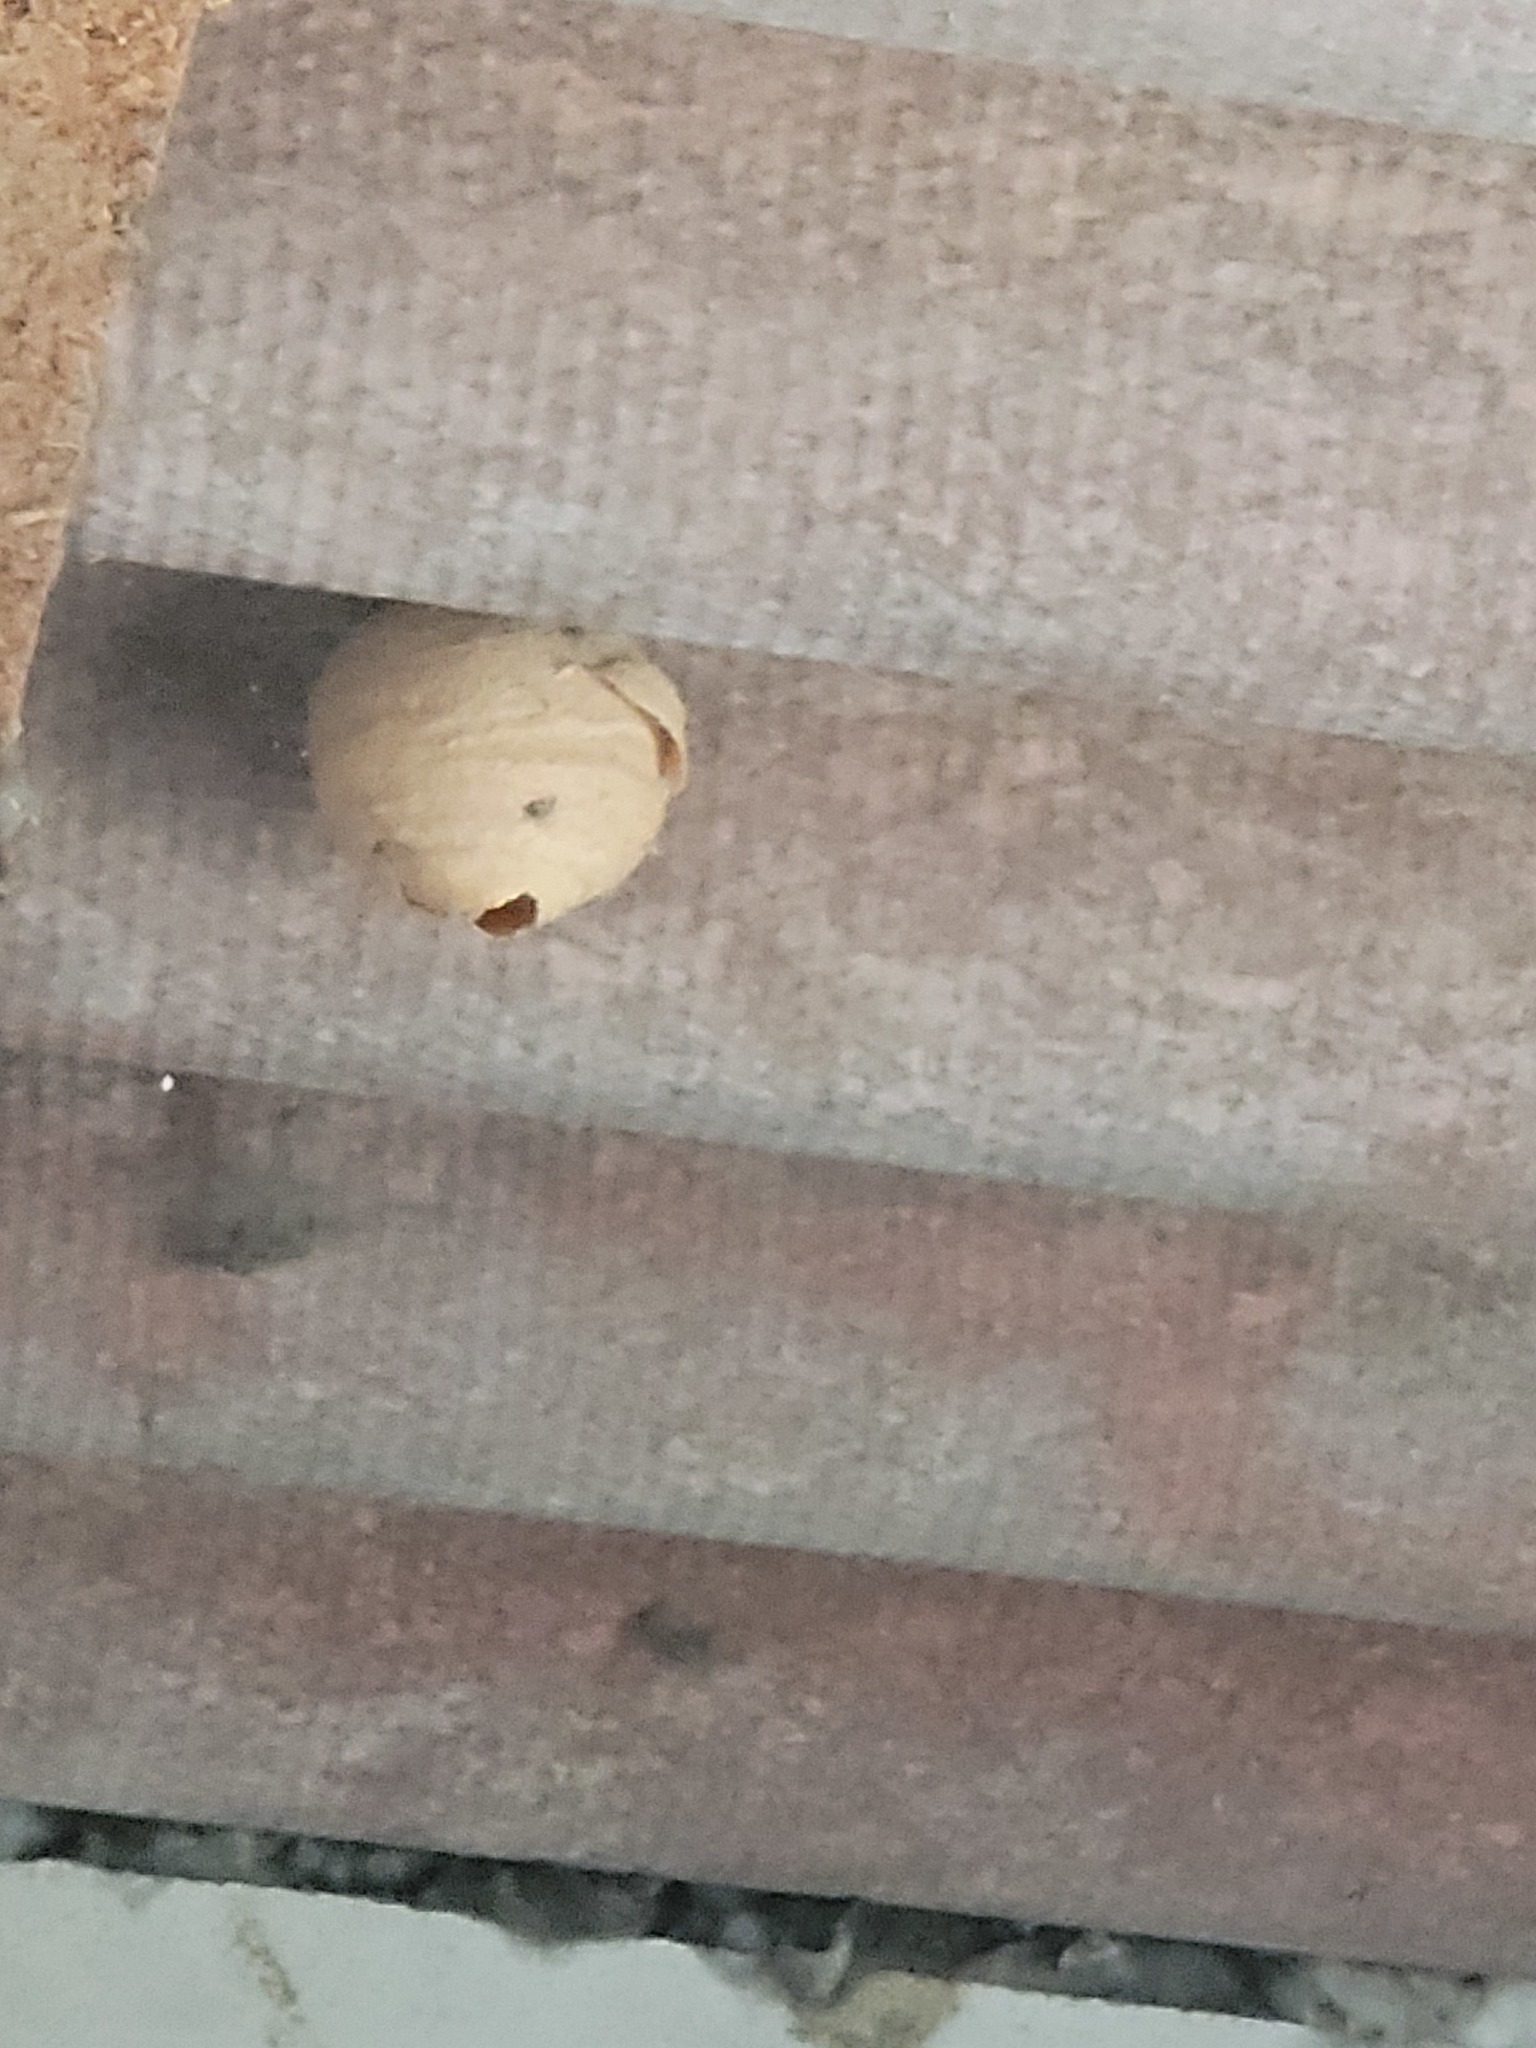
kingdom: Animalia
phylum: Arthropoda
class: Insecta
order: Hymenoptera
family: Vespidae
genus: Vespa
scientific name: Vespa velutina
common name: Asian hornet
